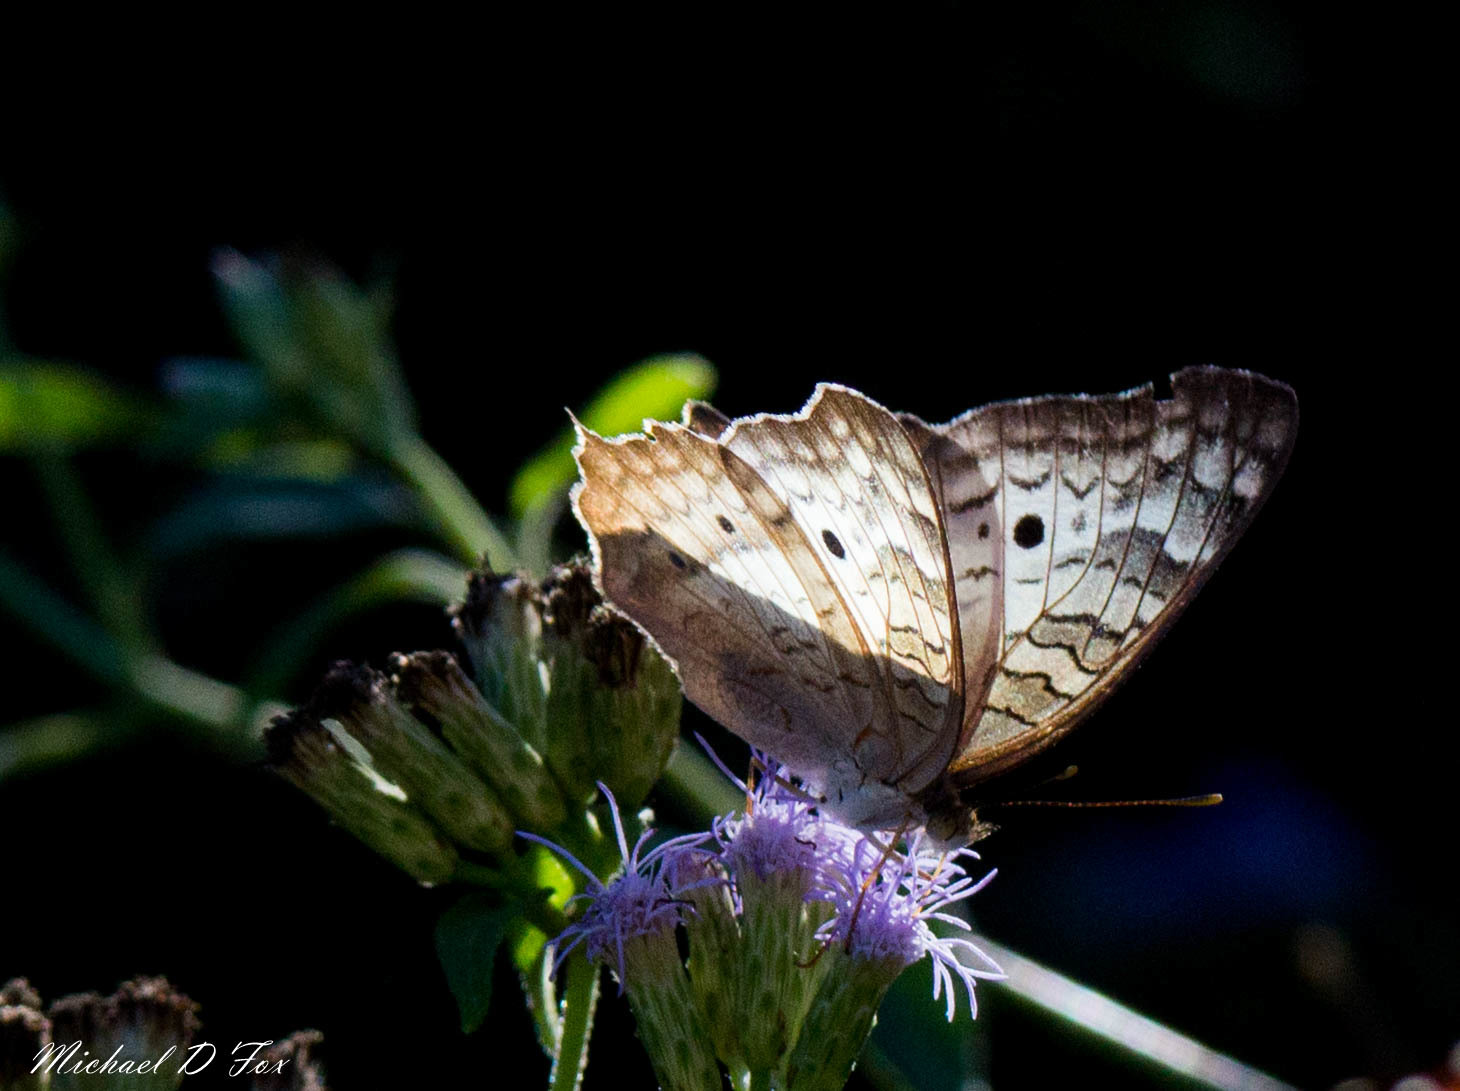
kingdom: Animalia
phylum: Arthropoda
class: Insecta
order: Lepidoptera
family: Nymphalidae
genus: Anartia
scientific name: Anartia jatrophae
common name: White peacock
